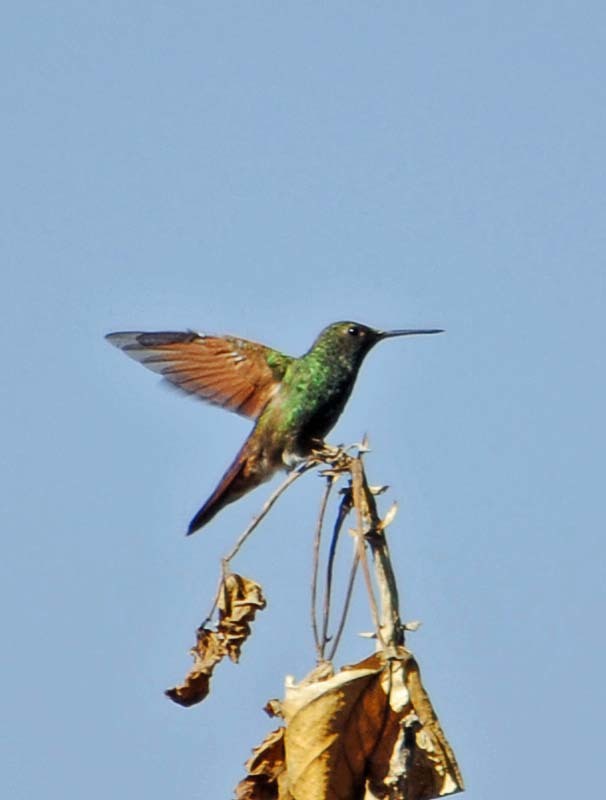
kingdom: Animalia
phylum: Chordata
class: Aves
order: Apodiformes
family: Trochilidae
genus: Saucerottia
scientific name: Saucerottia beryllina
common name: Berylline hummingbird
